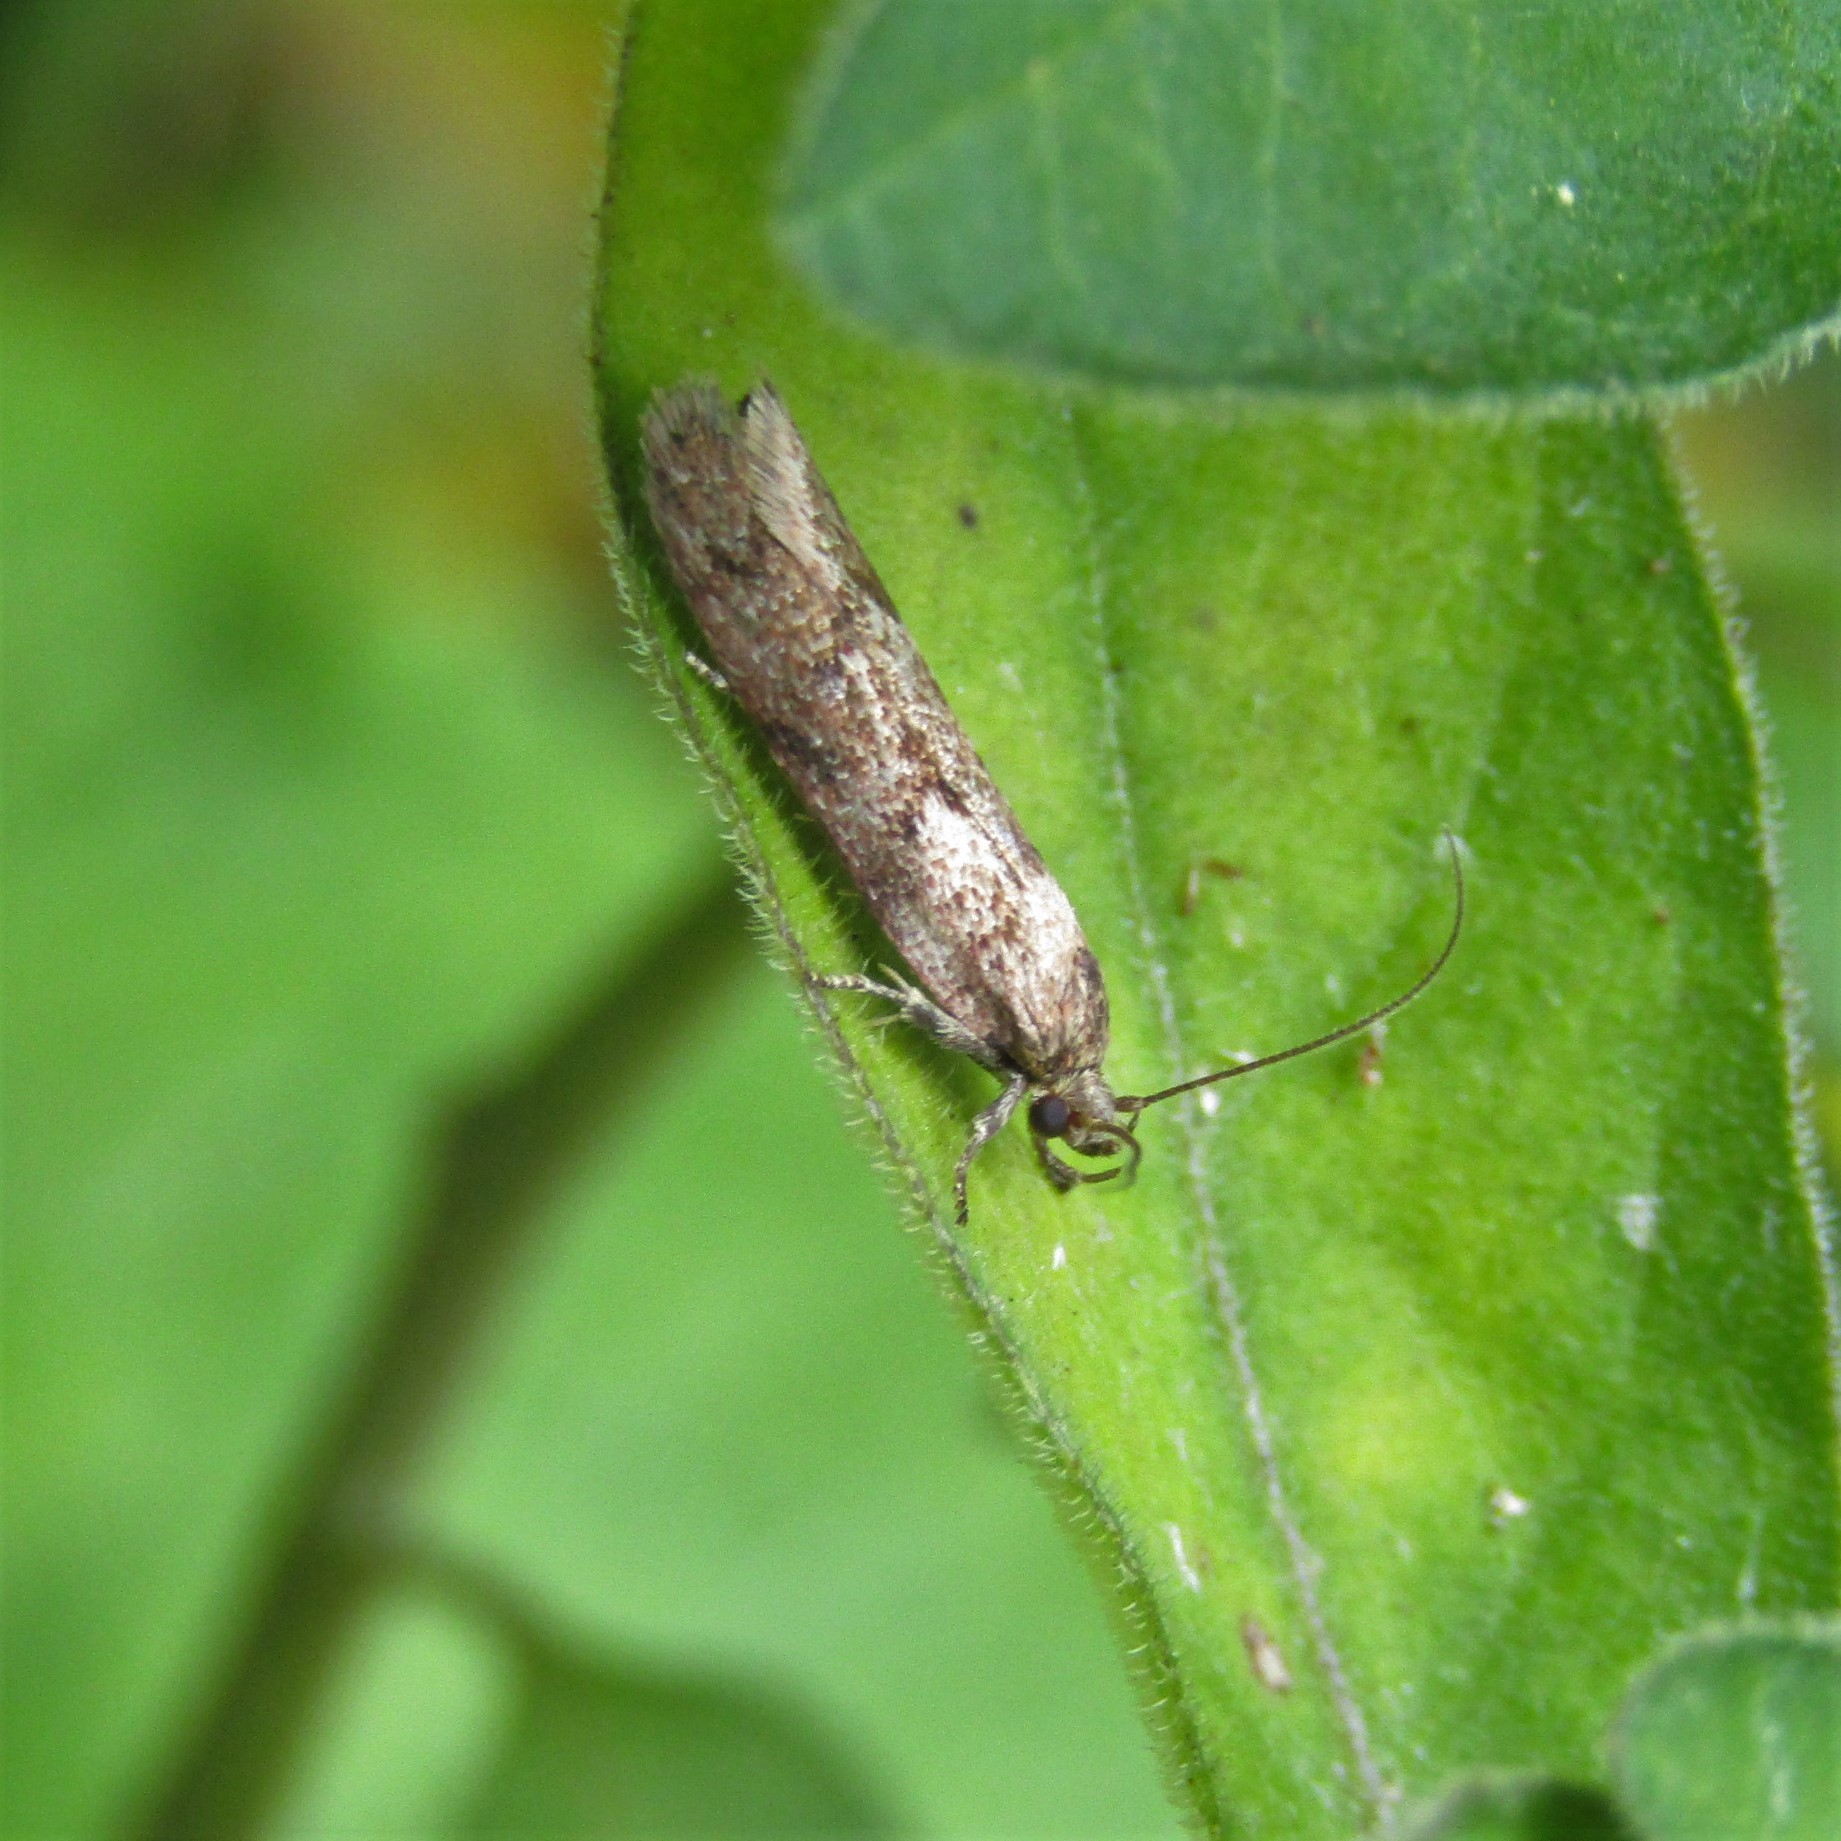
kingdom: Animalia
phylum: Arthropoda
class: Insecta
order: Lepidoptera
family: Oecophoridae
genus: Chersadaula
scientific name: Chersadaula ochrogastra
